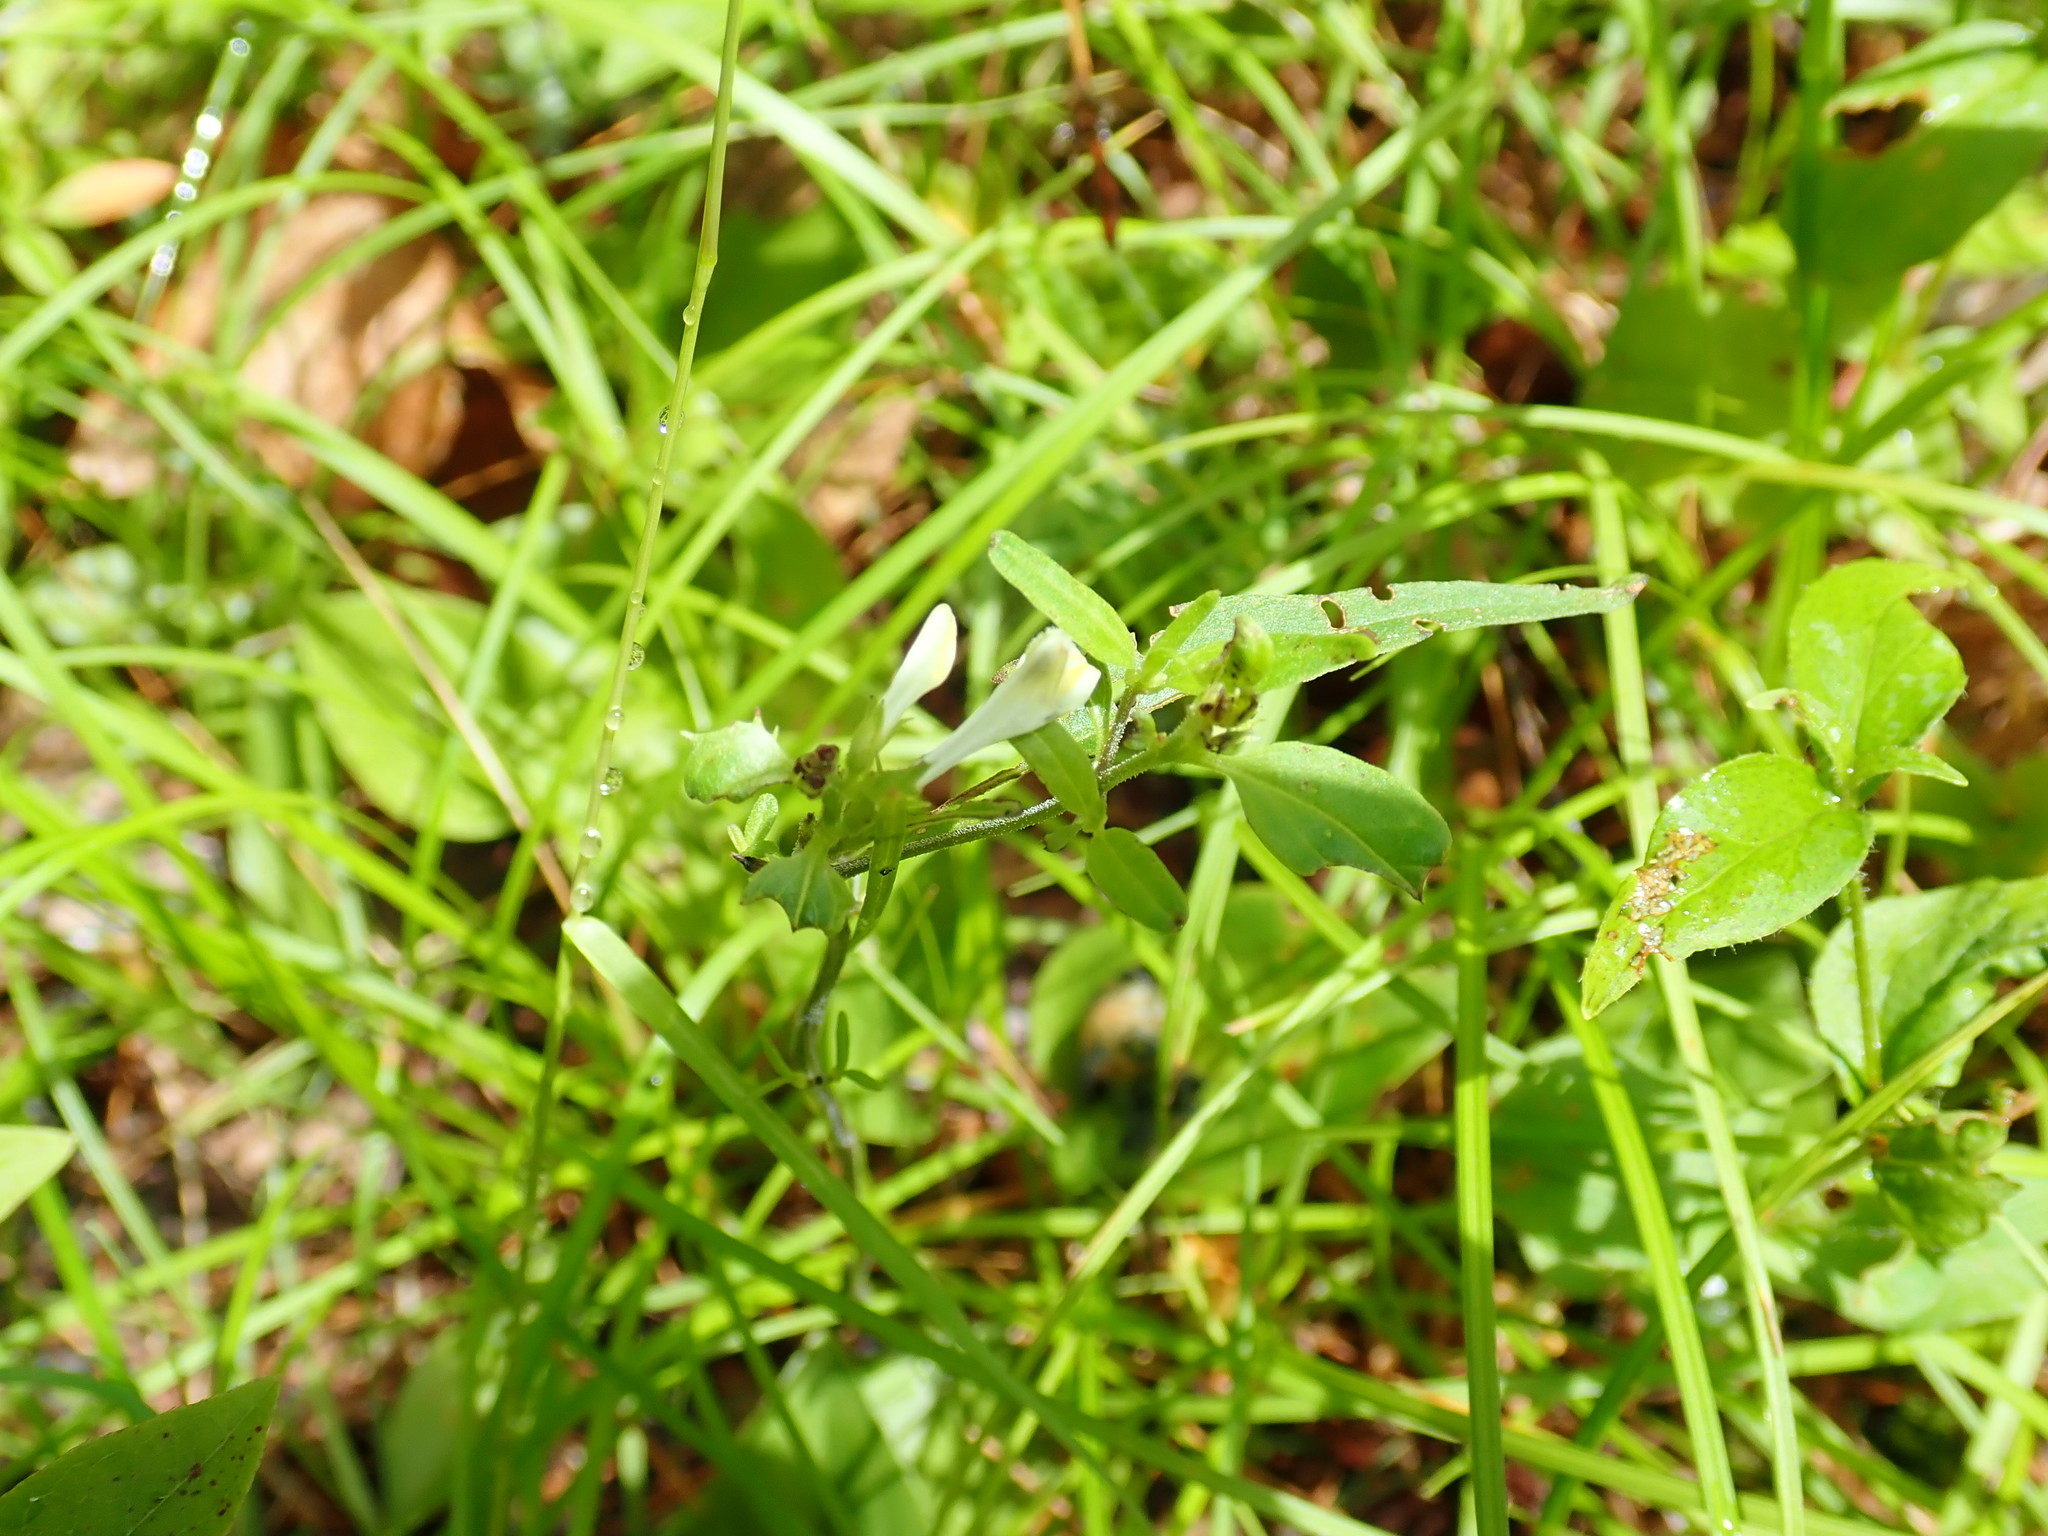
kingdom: Plantae
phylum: Tracheophyta
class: Magnoliopsida
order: Lamiales
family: Orobanchaceae
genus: Melampyrum
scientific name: Melampyrum lineare
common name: American cow-wheat
